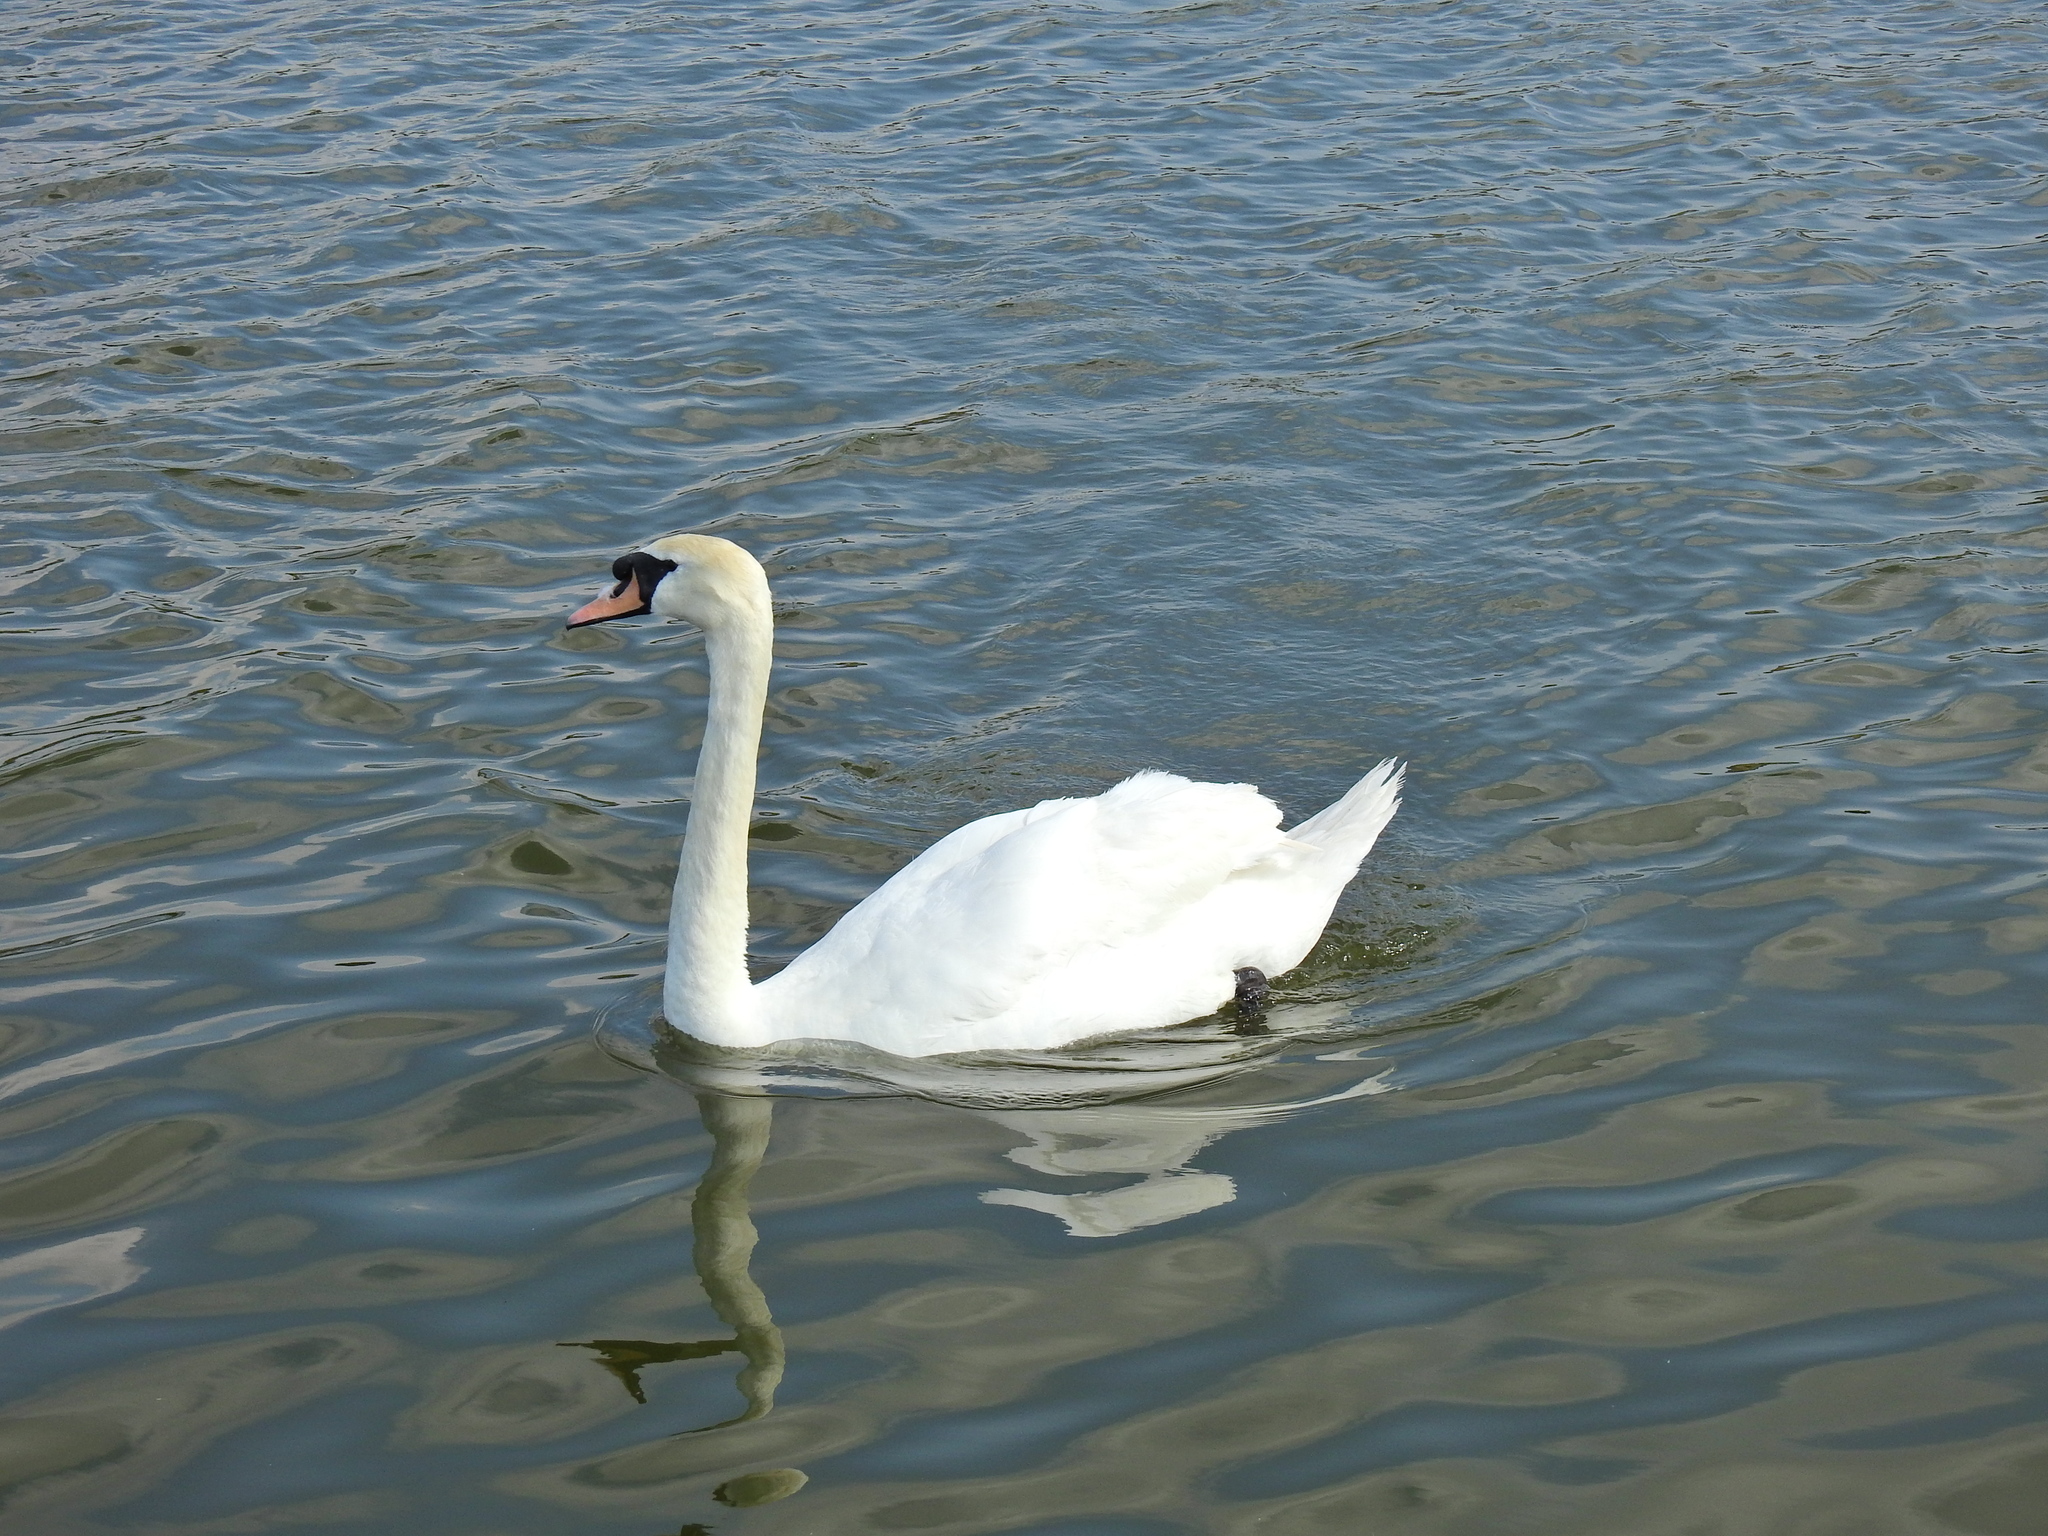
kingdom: Animalia
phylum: Chordata
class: Aves
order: Anseriformes
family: Anatidae
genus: Cygnus
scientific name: Cygnus olor
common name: Mute swan
